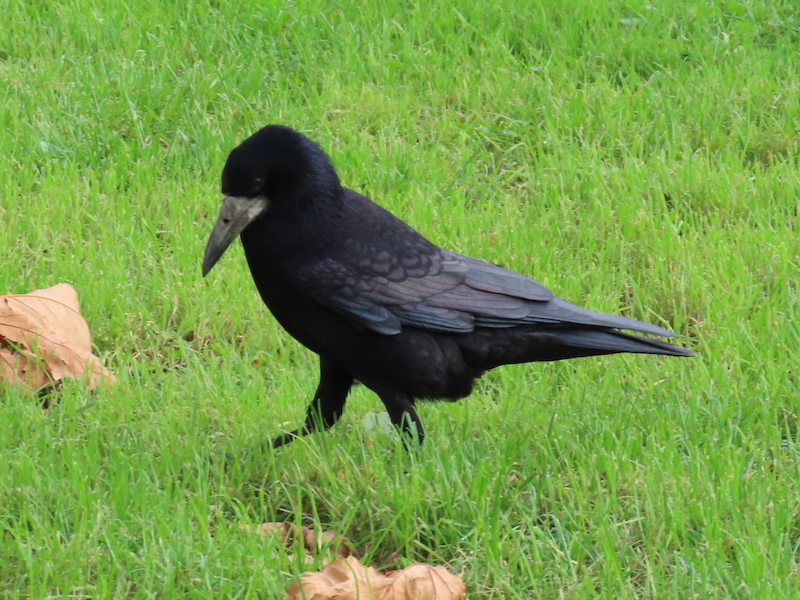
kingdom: Animalia
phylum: Chordata
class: Aves
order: Passeriformes
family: Corvidae
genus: Corvus
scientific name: Corvus frugilegus
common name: Rook
